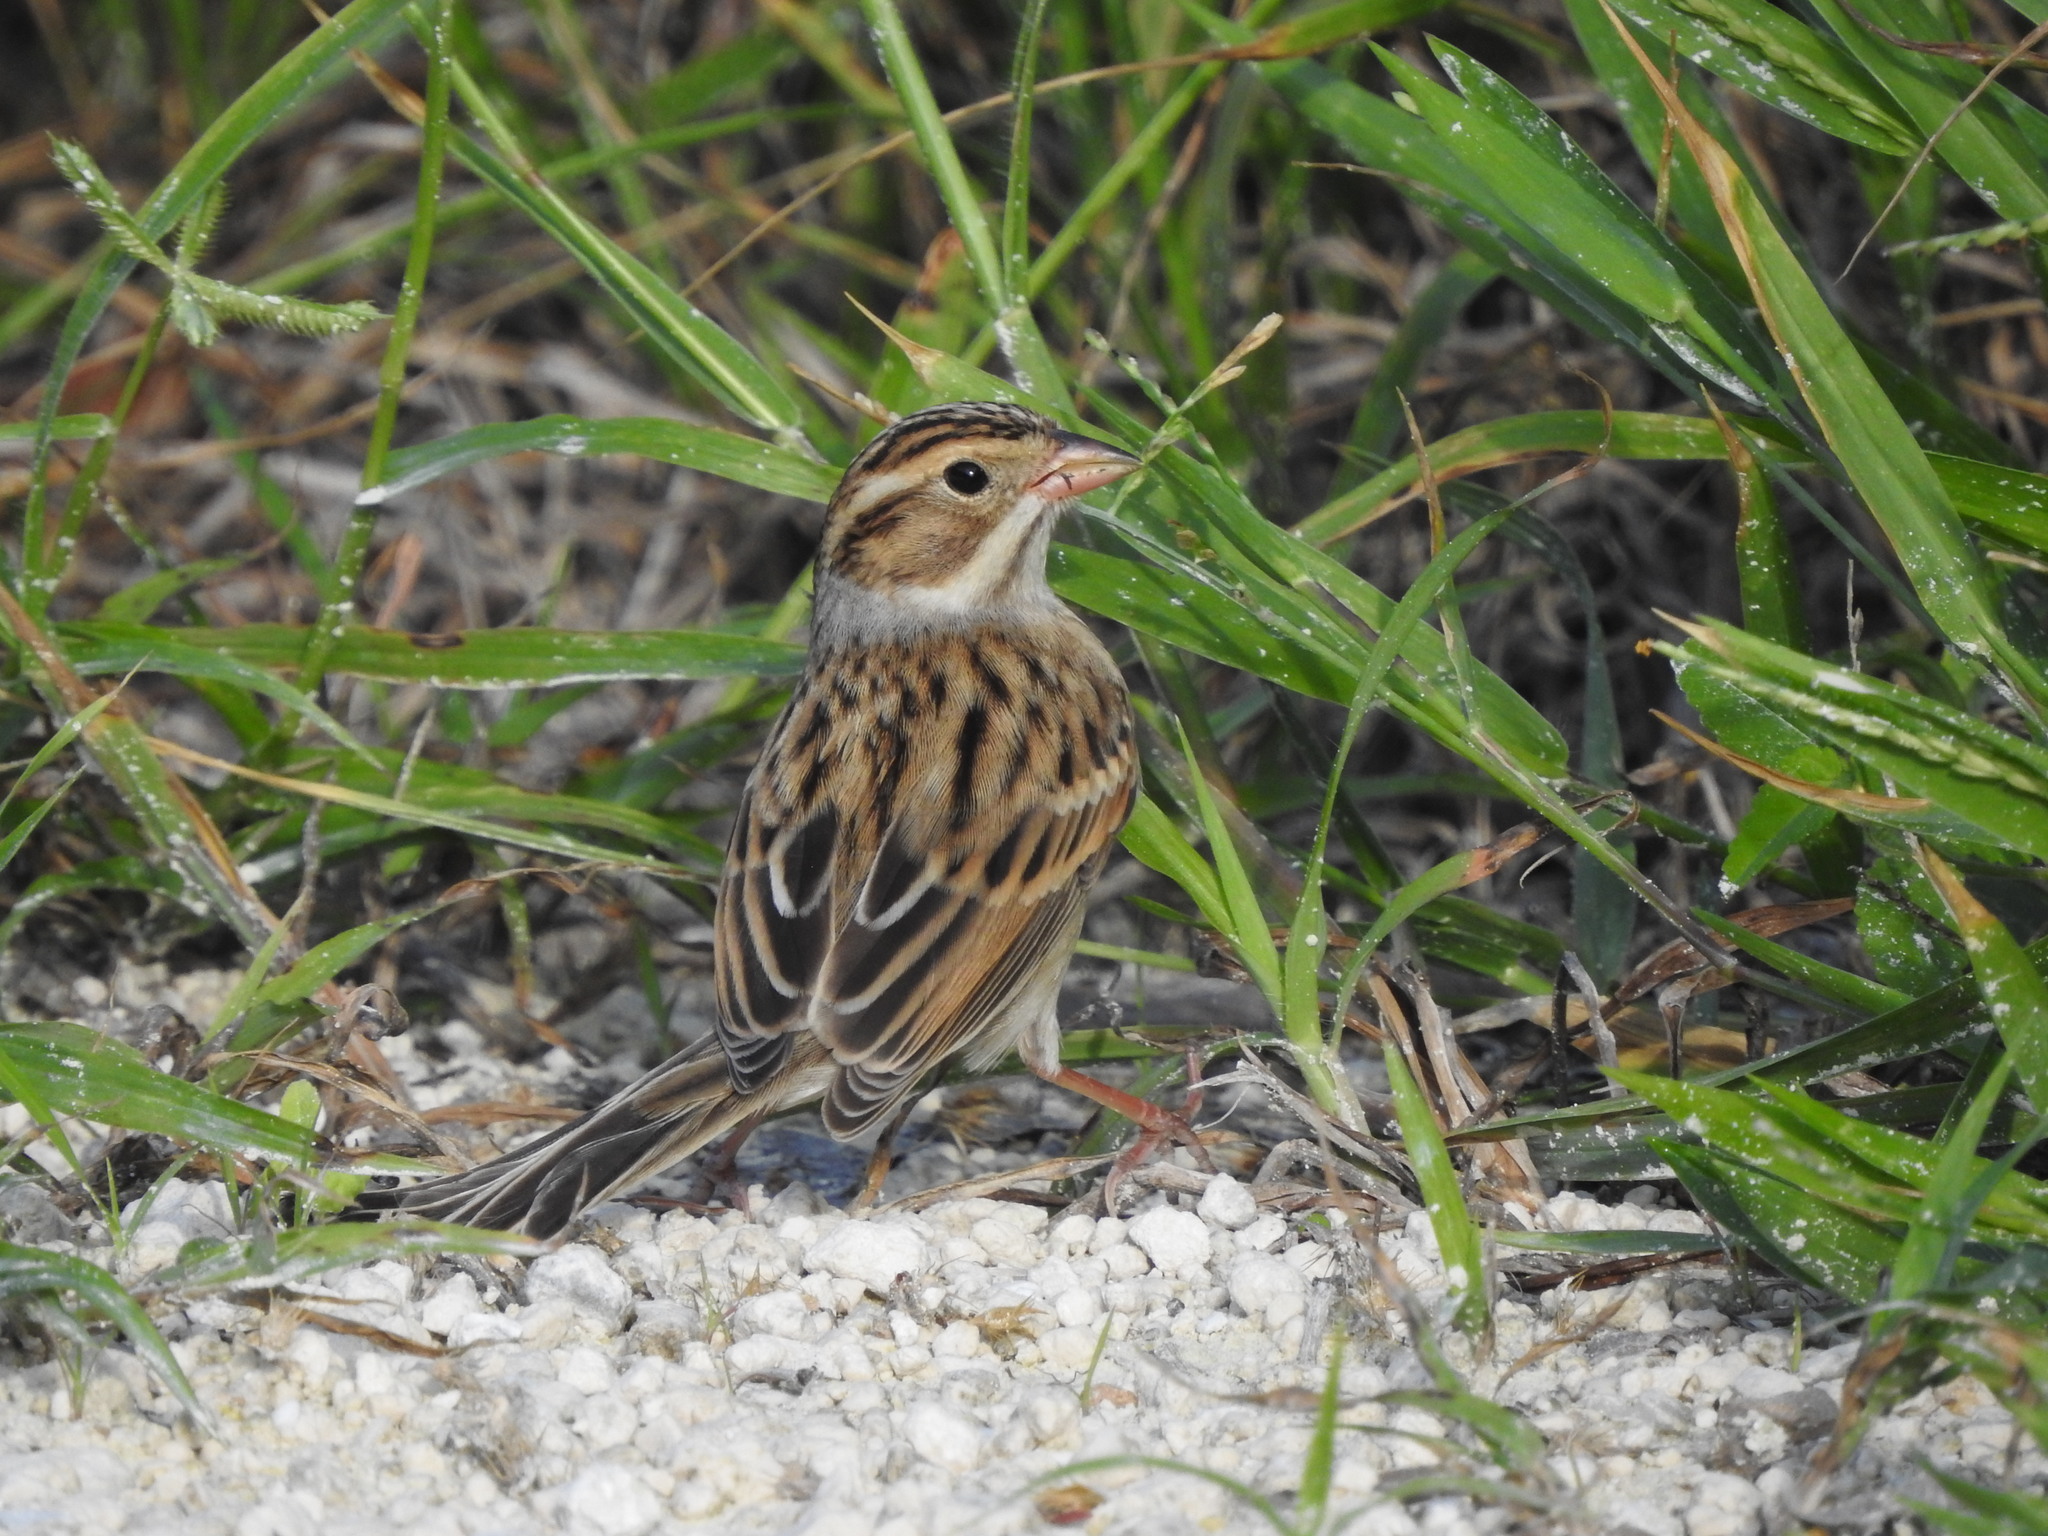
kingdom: Animalia
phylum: Chordata
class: Aves
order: Passeriformes
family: Passerellidae
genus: Spizella
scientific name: Spizella pallida
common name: Clay-colored sparrow
